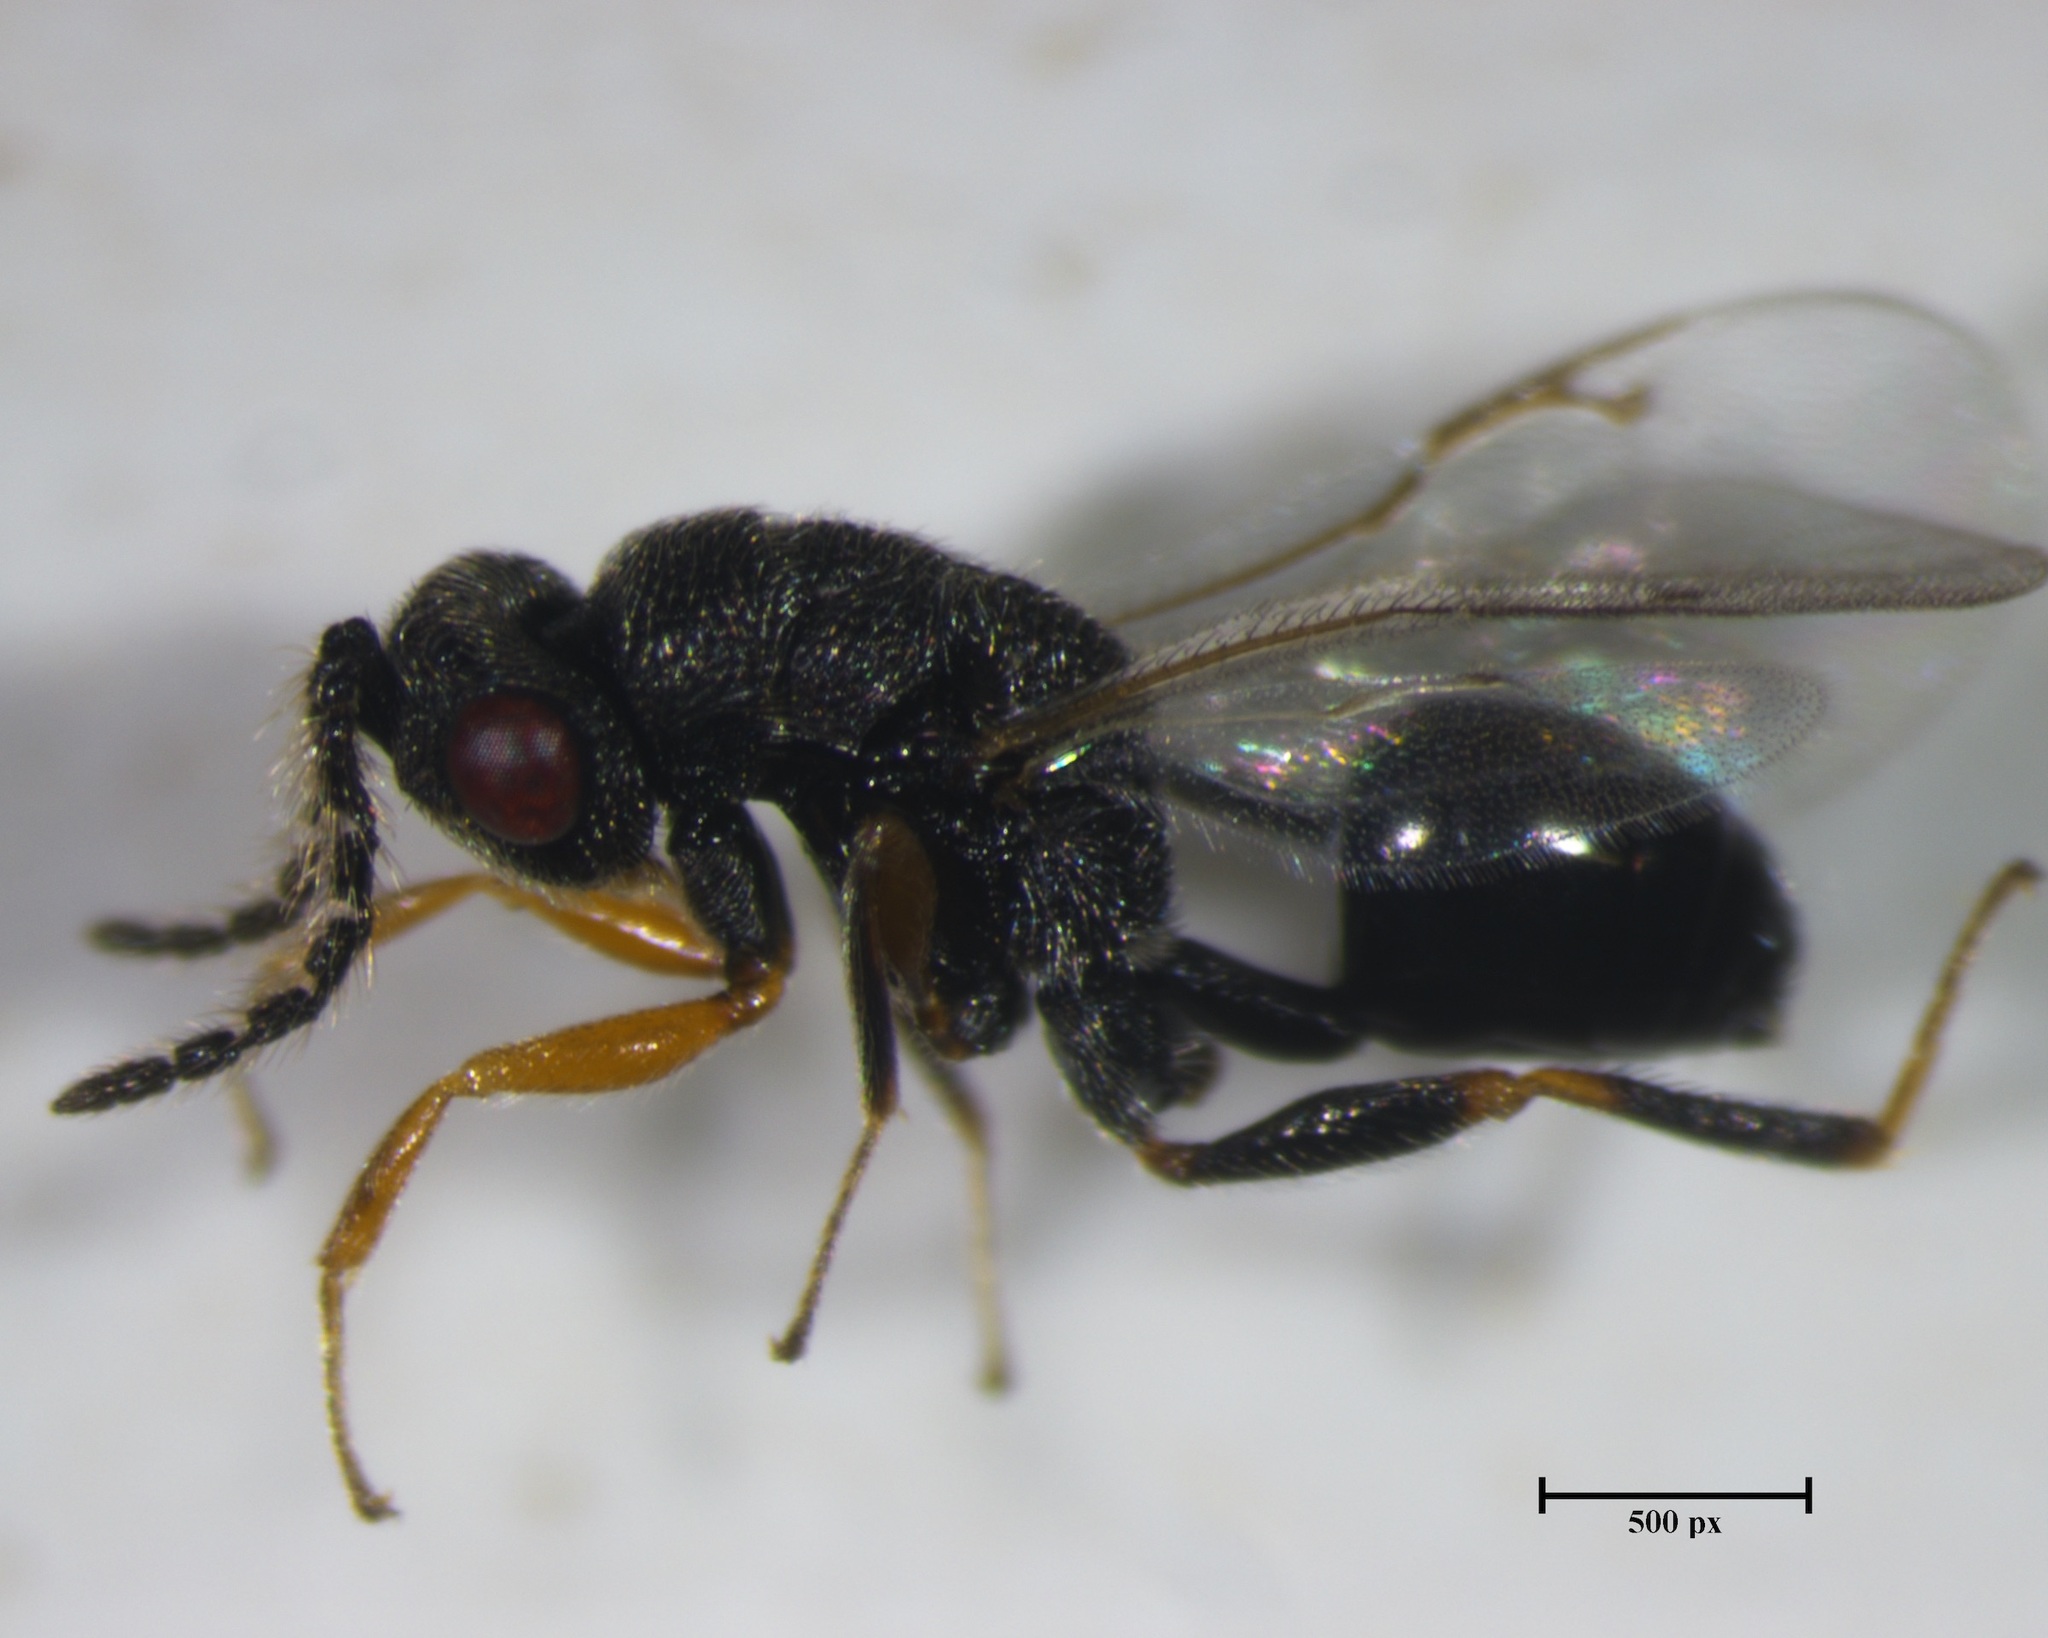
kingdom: Animalia
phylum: Arthropoda
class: Insecta
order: Hymenoptera
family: Eurytomidae
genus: Eurytoma
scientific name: Eurytoma discordans
